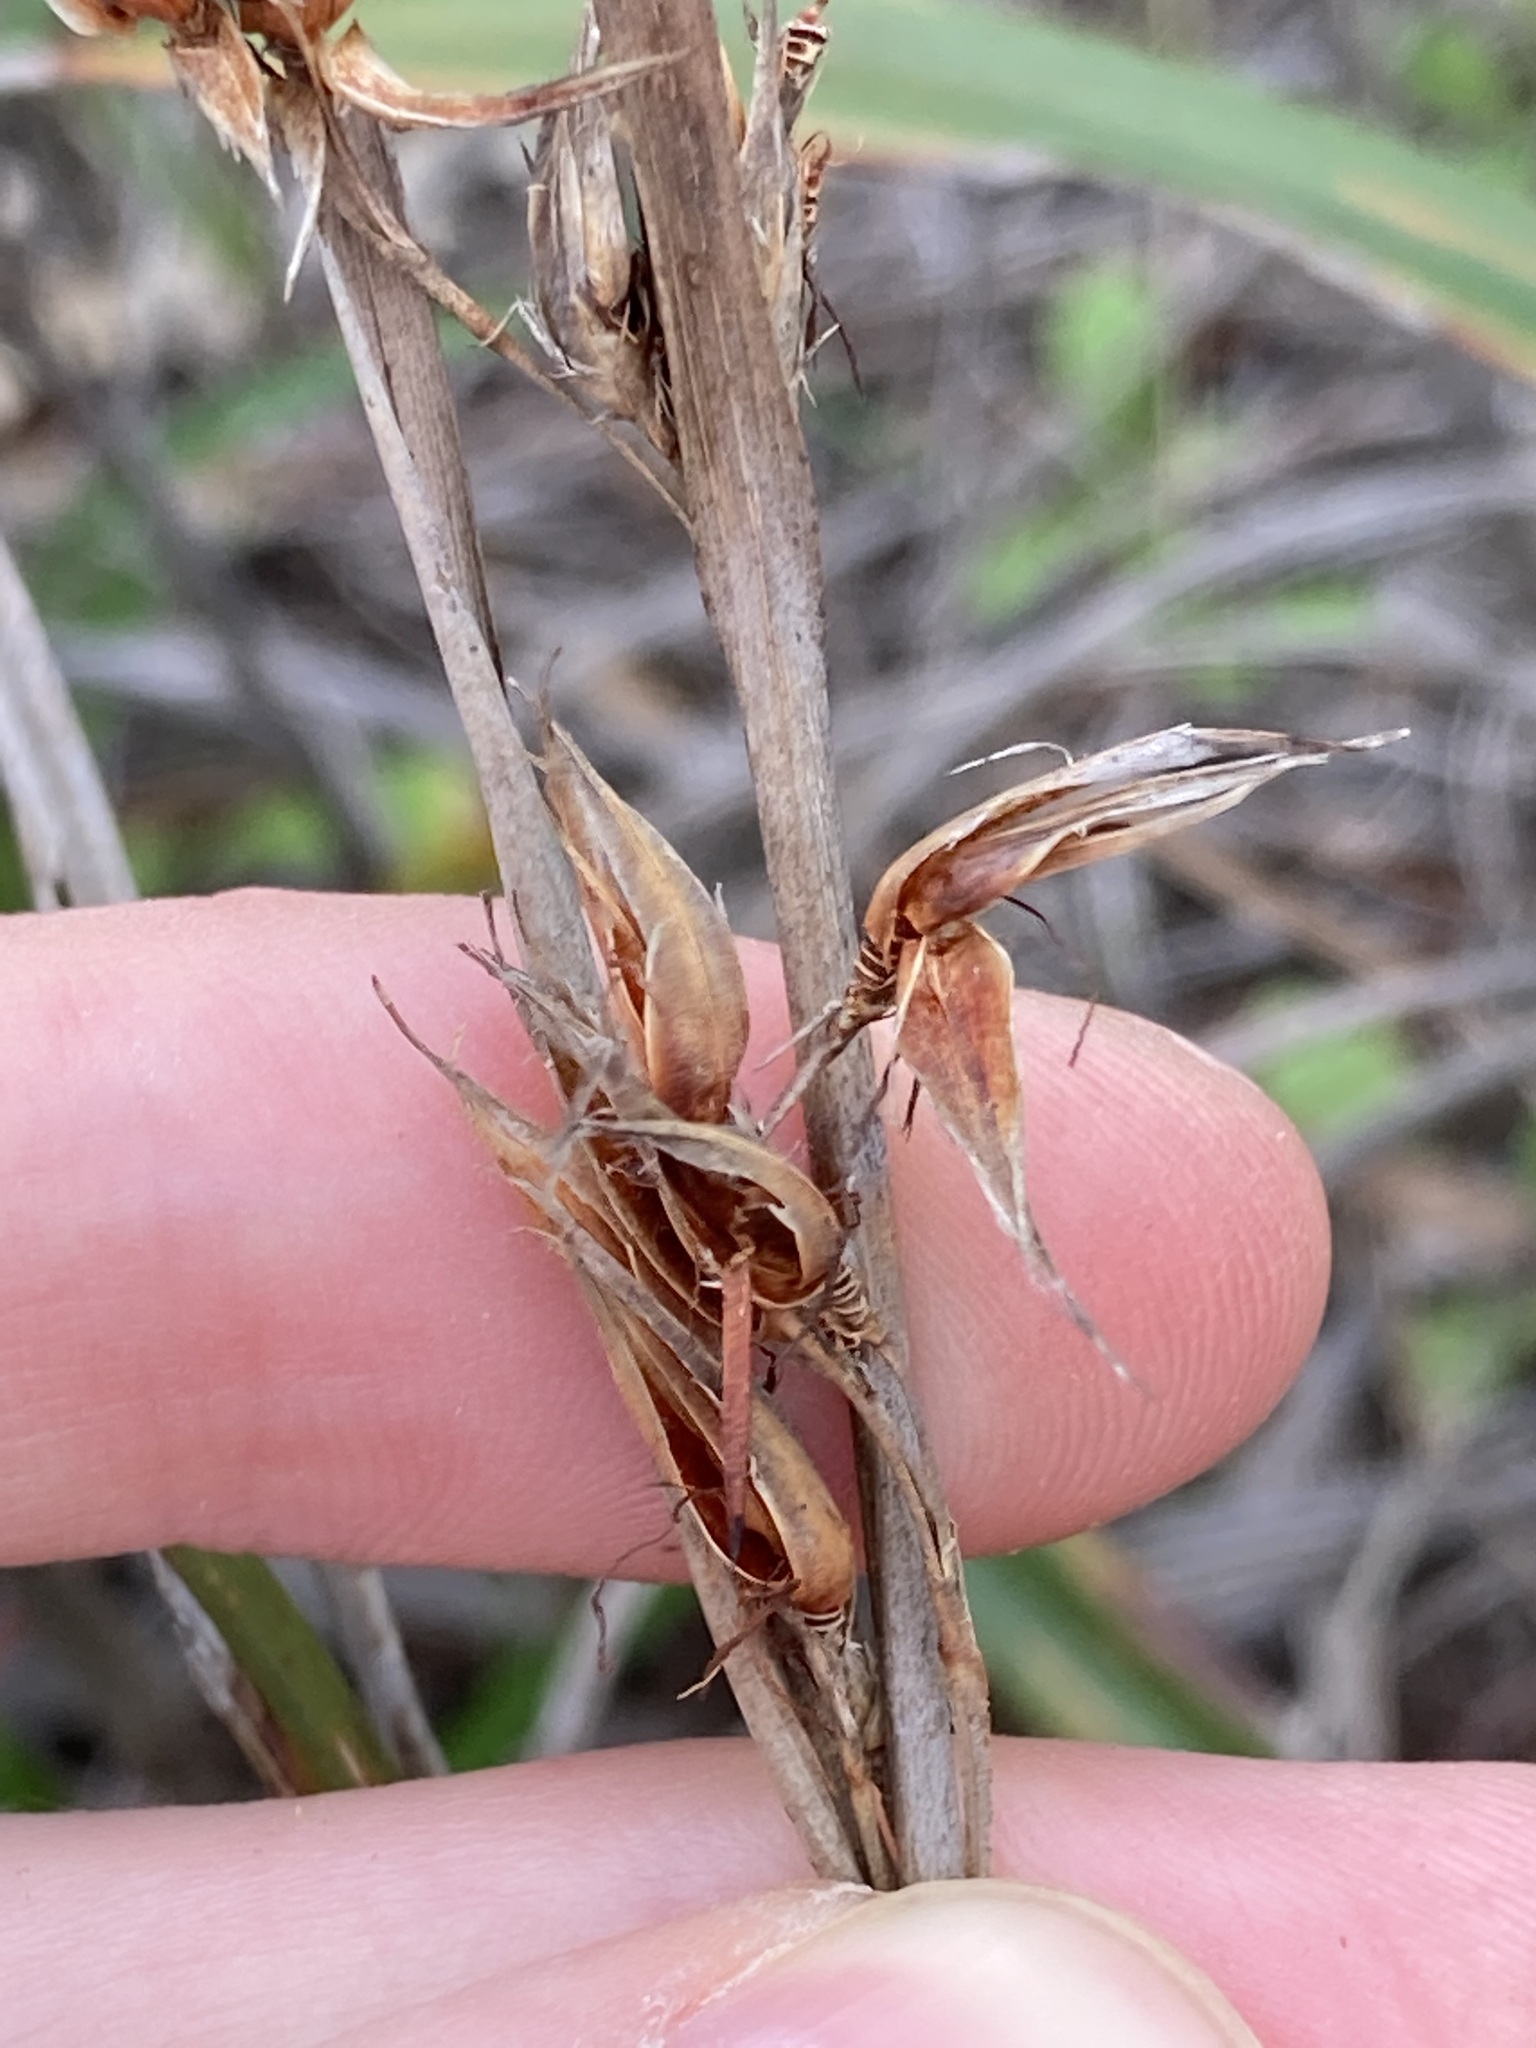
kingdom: Plantae
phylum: Tracheophyta
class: Liliopsida
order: Poales
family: Cyperaceae
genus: Schoenus
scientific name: Schoenus grandiflorus
